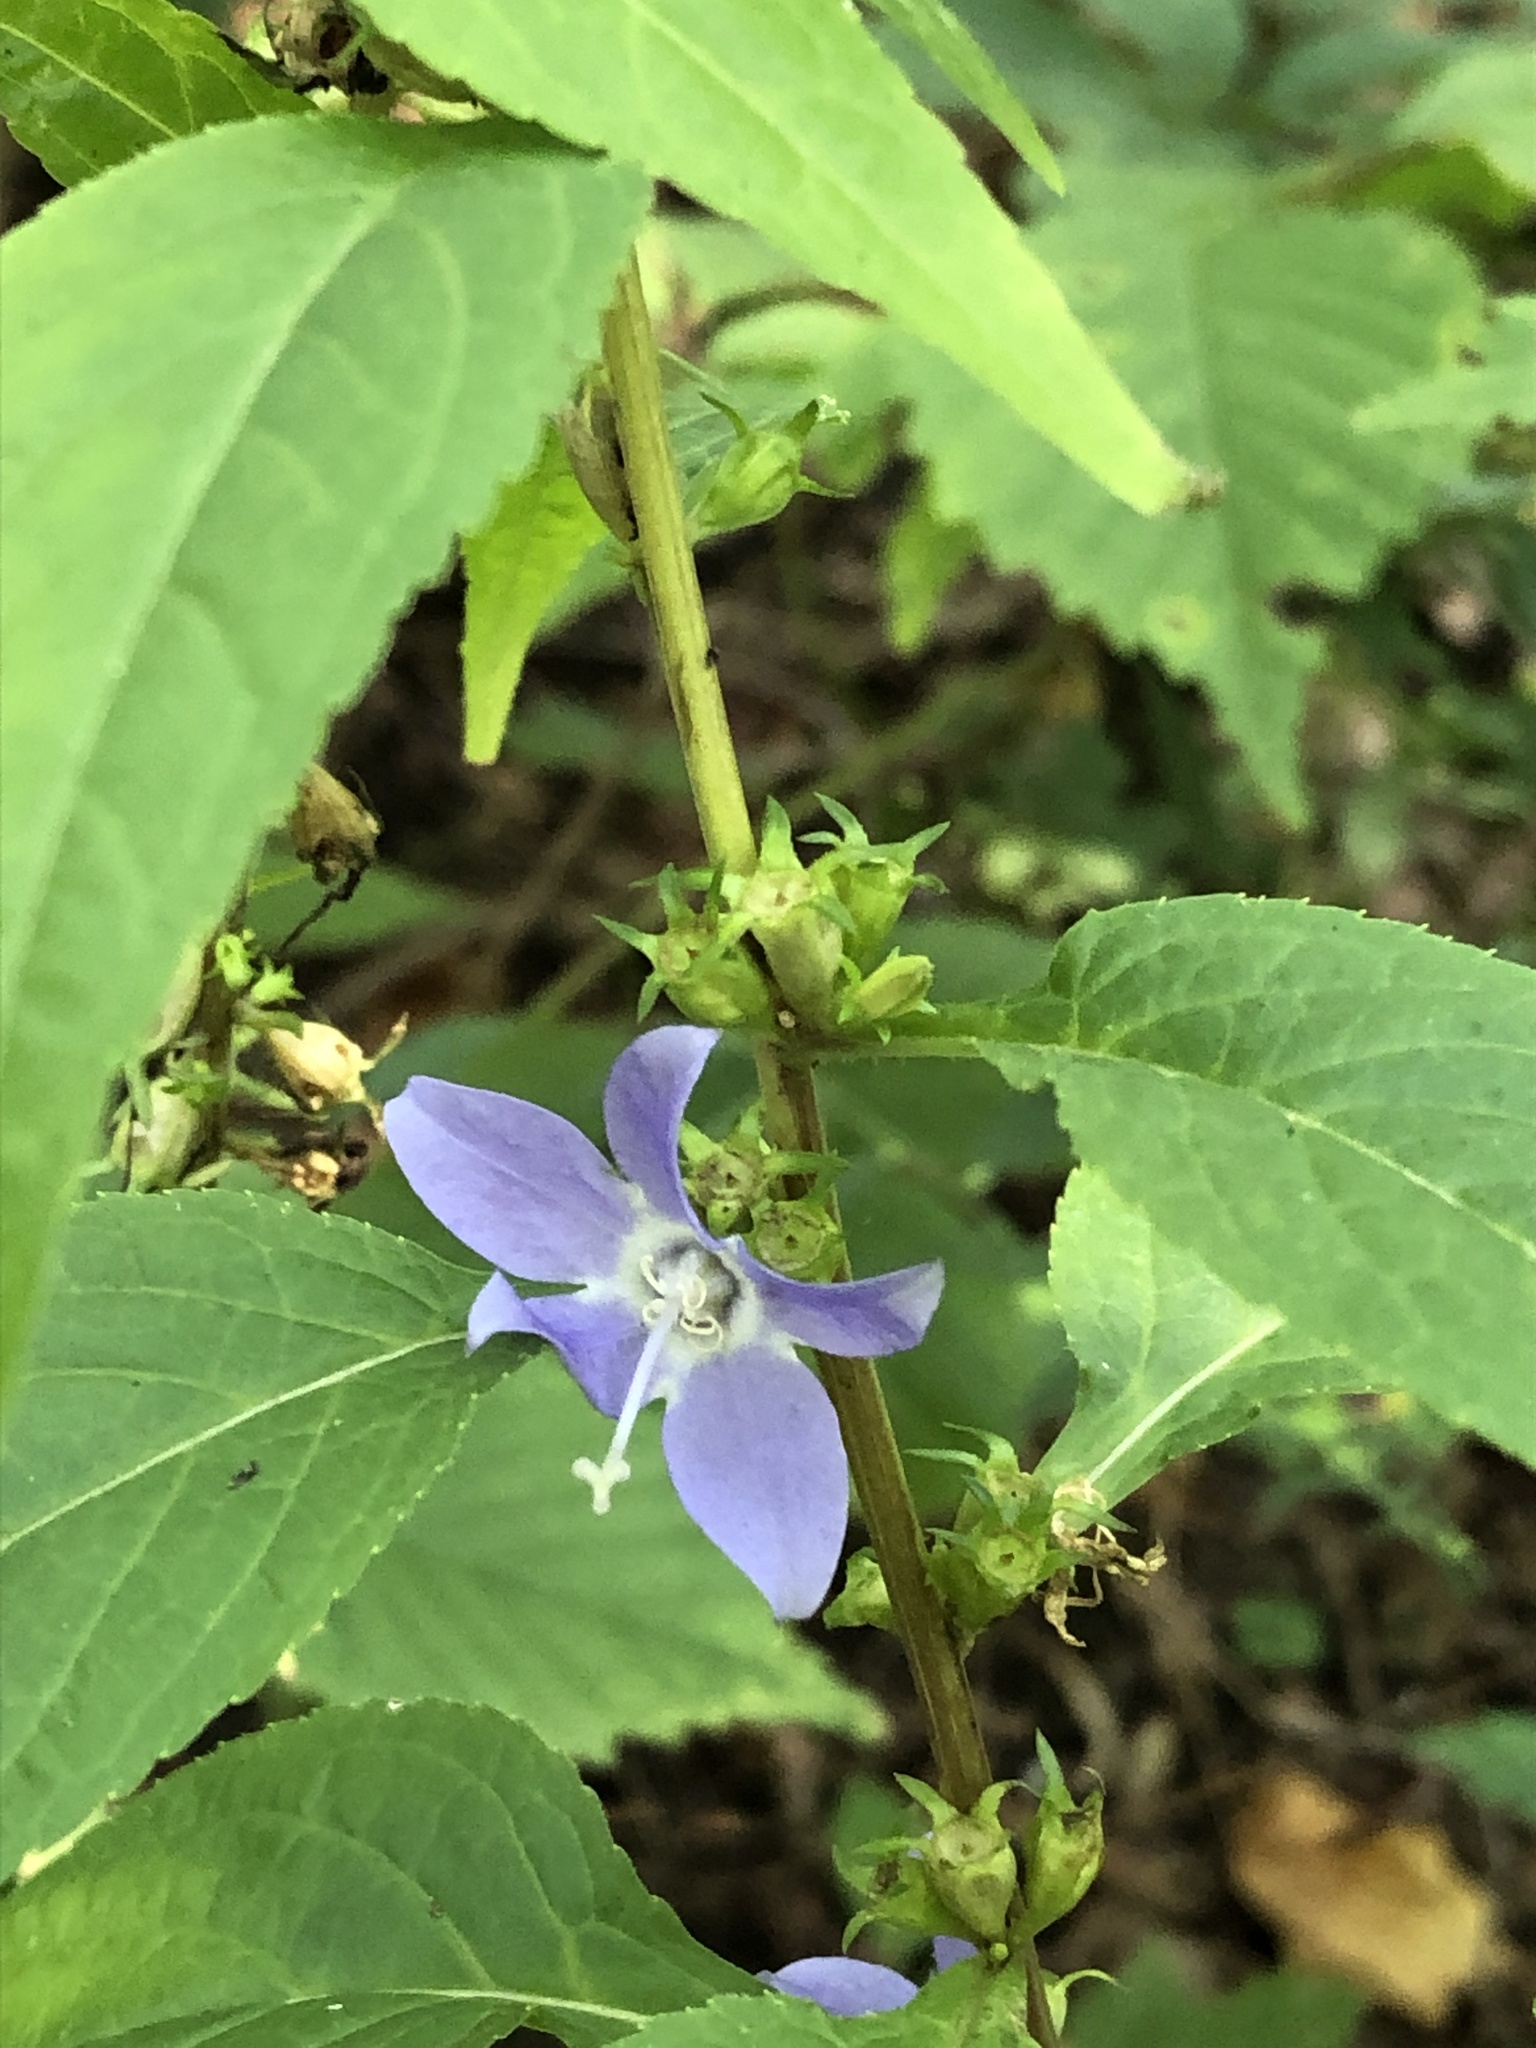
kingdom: Plantae
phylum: Tracheophyta
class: Magnoliopsida
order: Asterales
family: Campanulaceae
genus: Campanulastrum
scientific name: Campanulastrum americanum
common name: American bellflower
